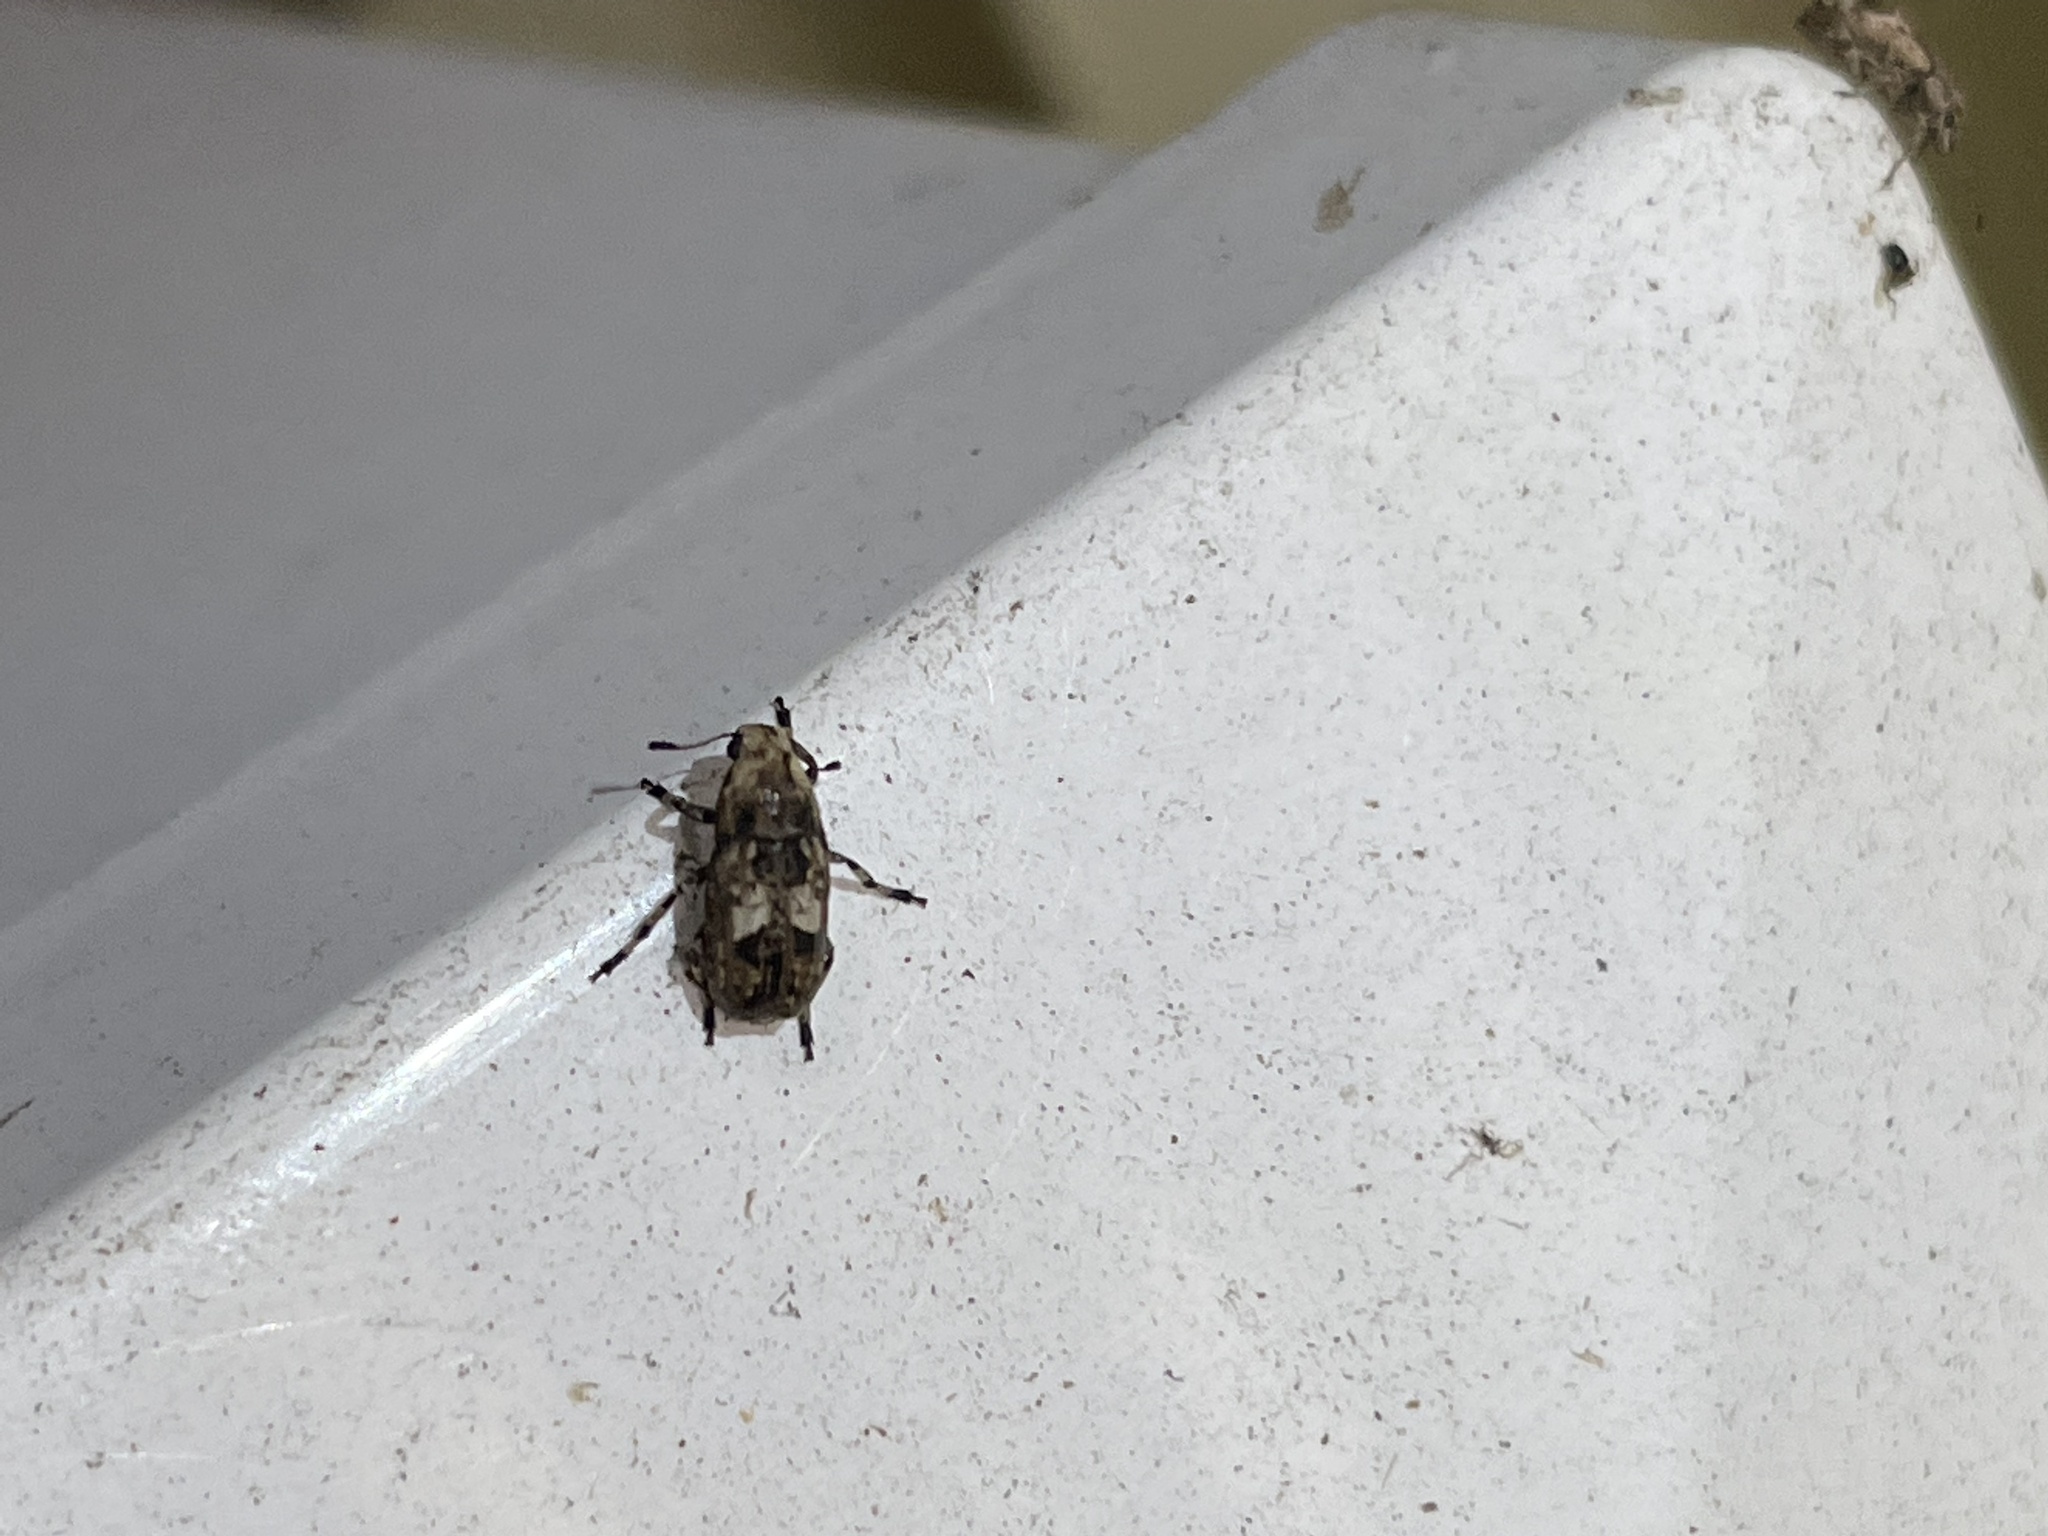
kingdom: Animalia
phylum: Arthropoda
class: Insecta
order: Coleoptera
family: Anthribidae
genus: Euparius
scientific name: Euparius marmoreus
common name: Marbled fungus weevil
